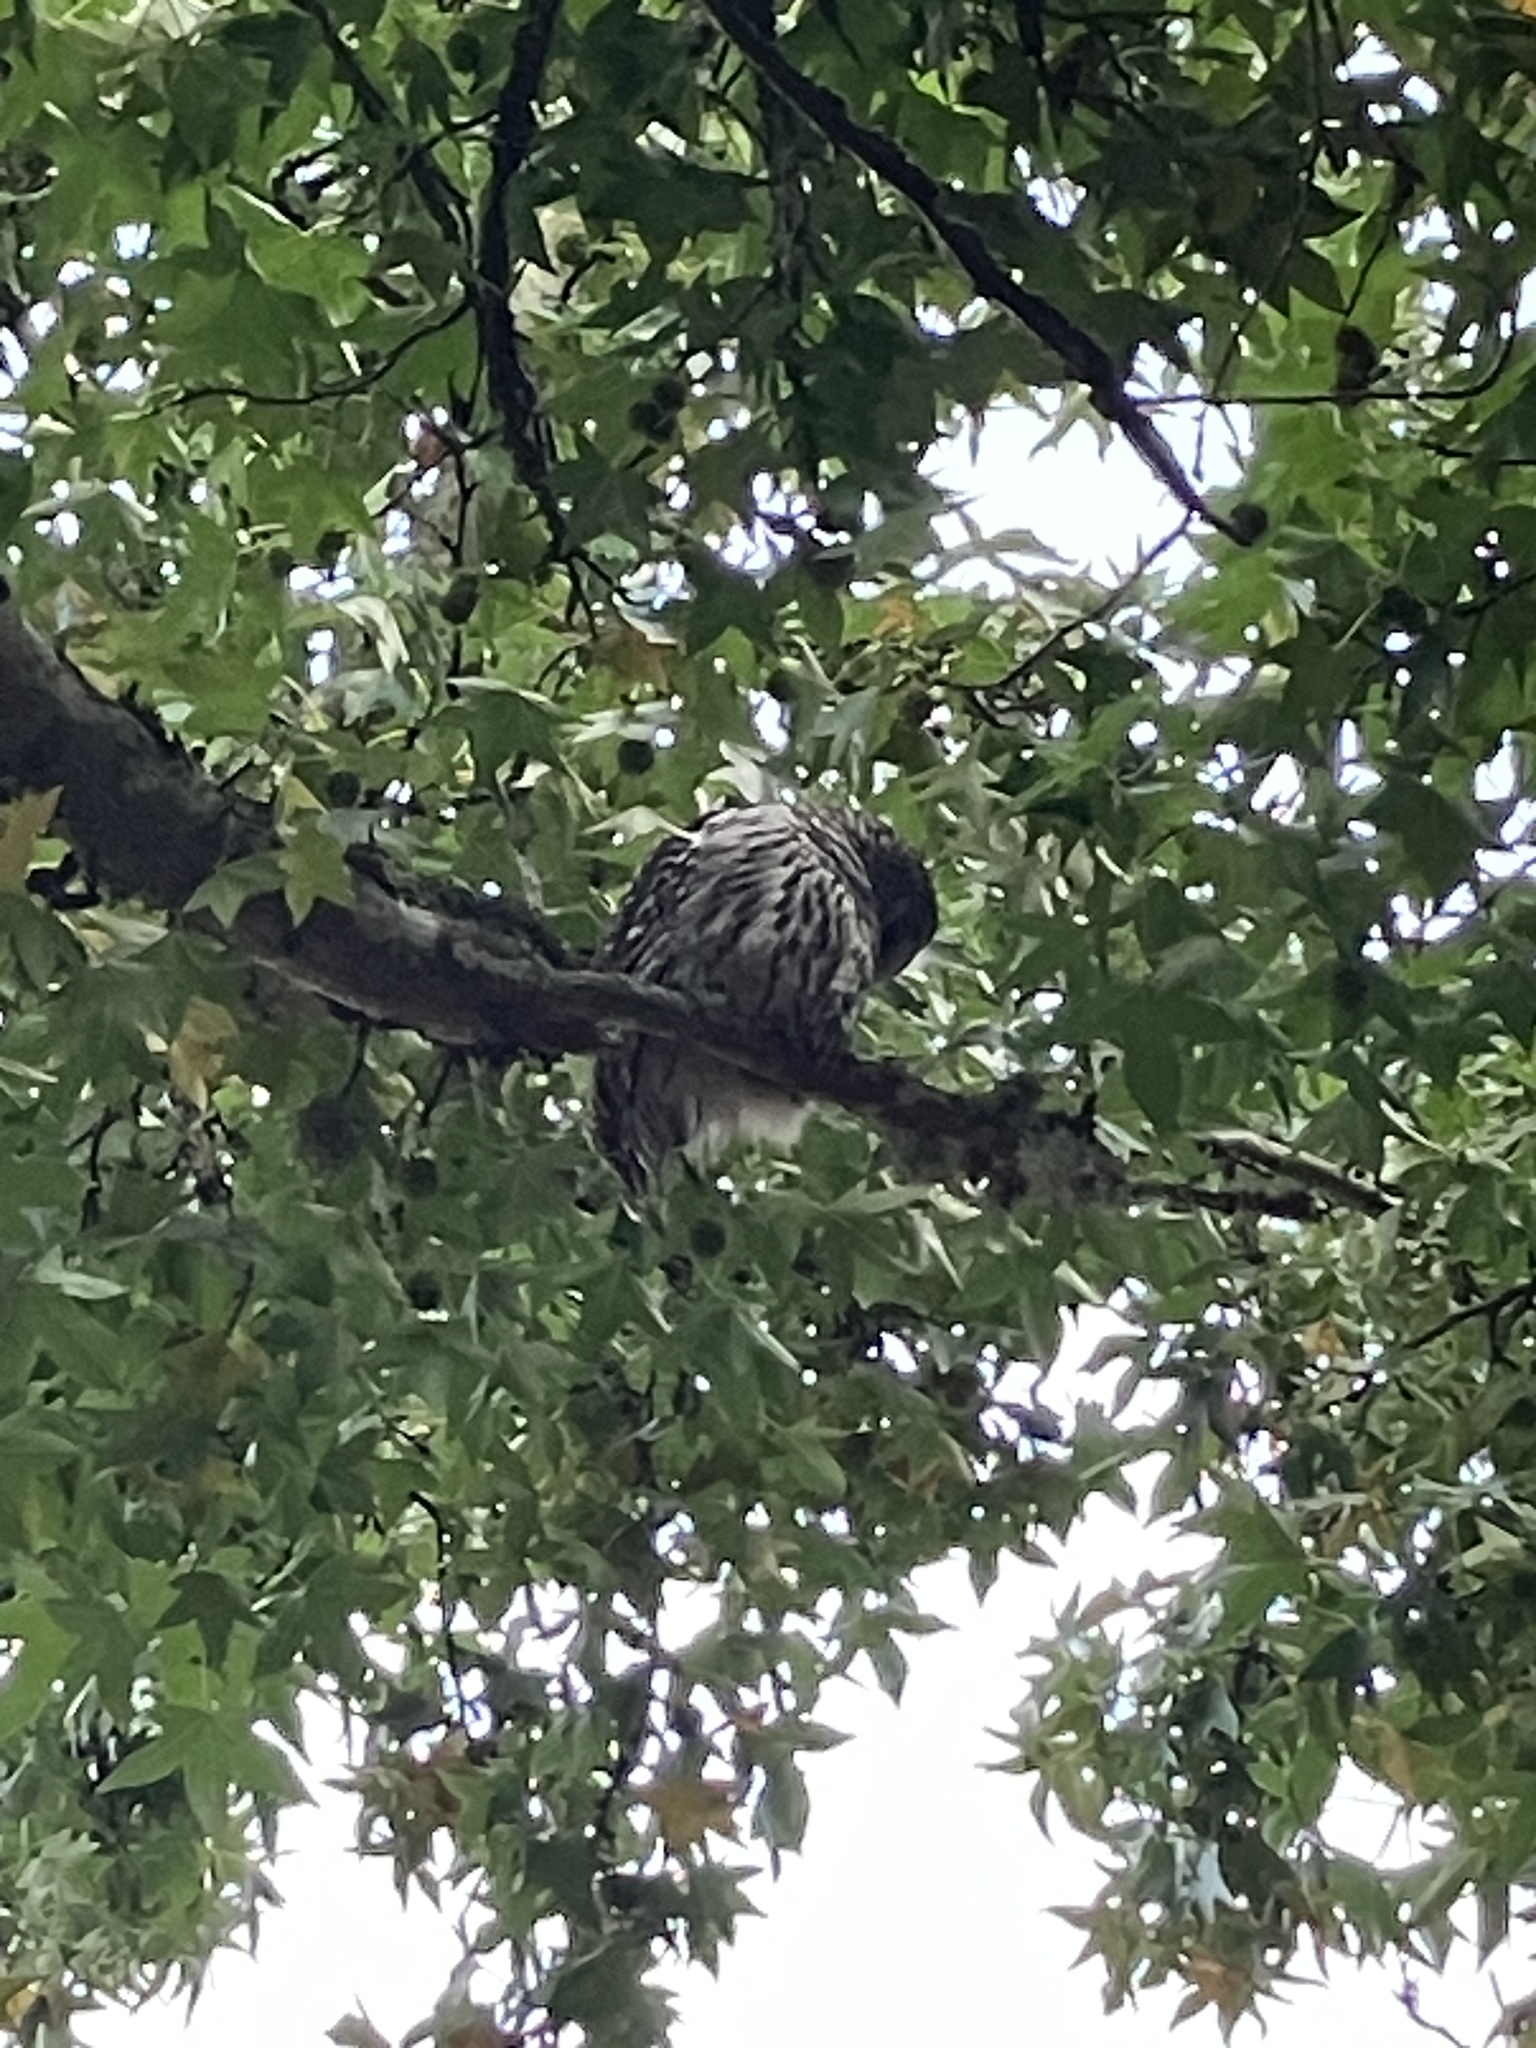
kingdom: Animalia
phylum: Chordata
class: Aves
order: Strigiformes
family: Strigidae
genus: Strix
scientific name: Strix varia
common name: Barred owl
